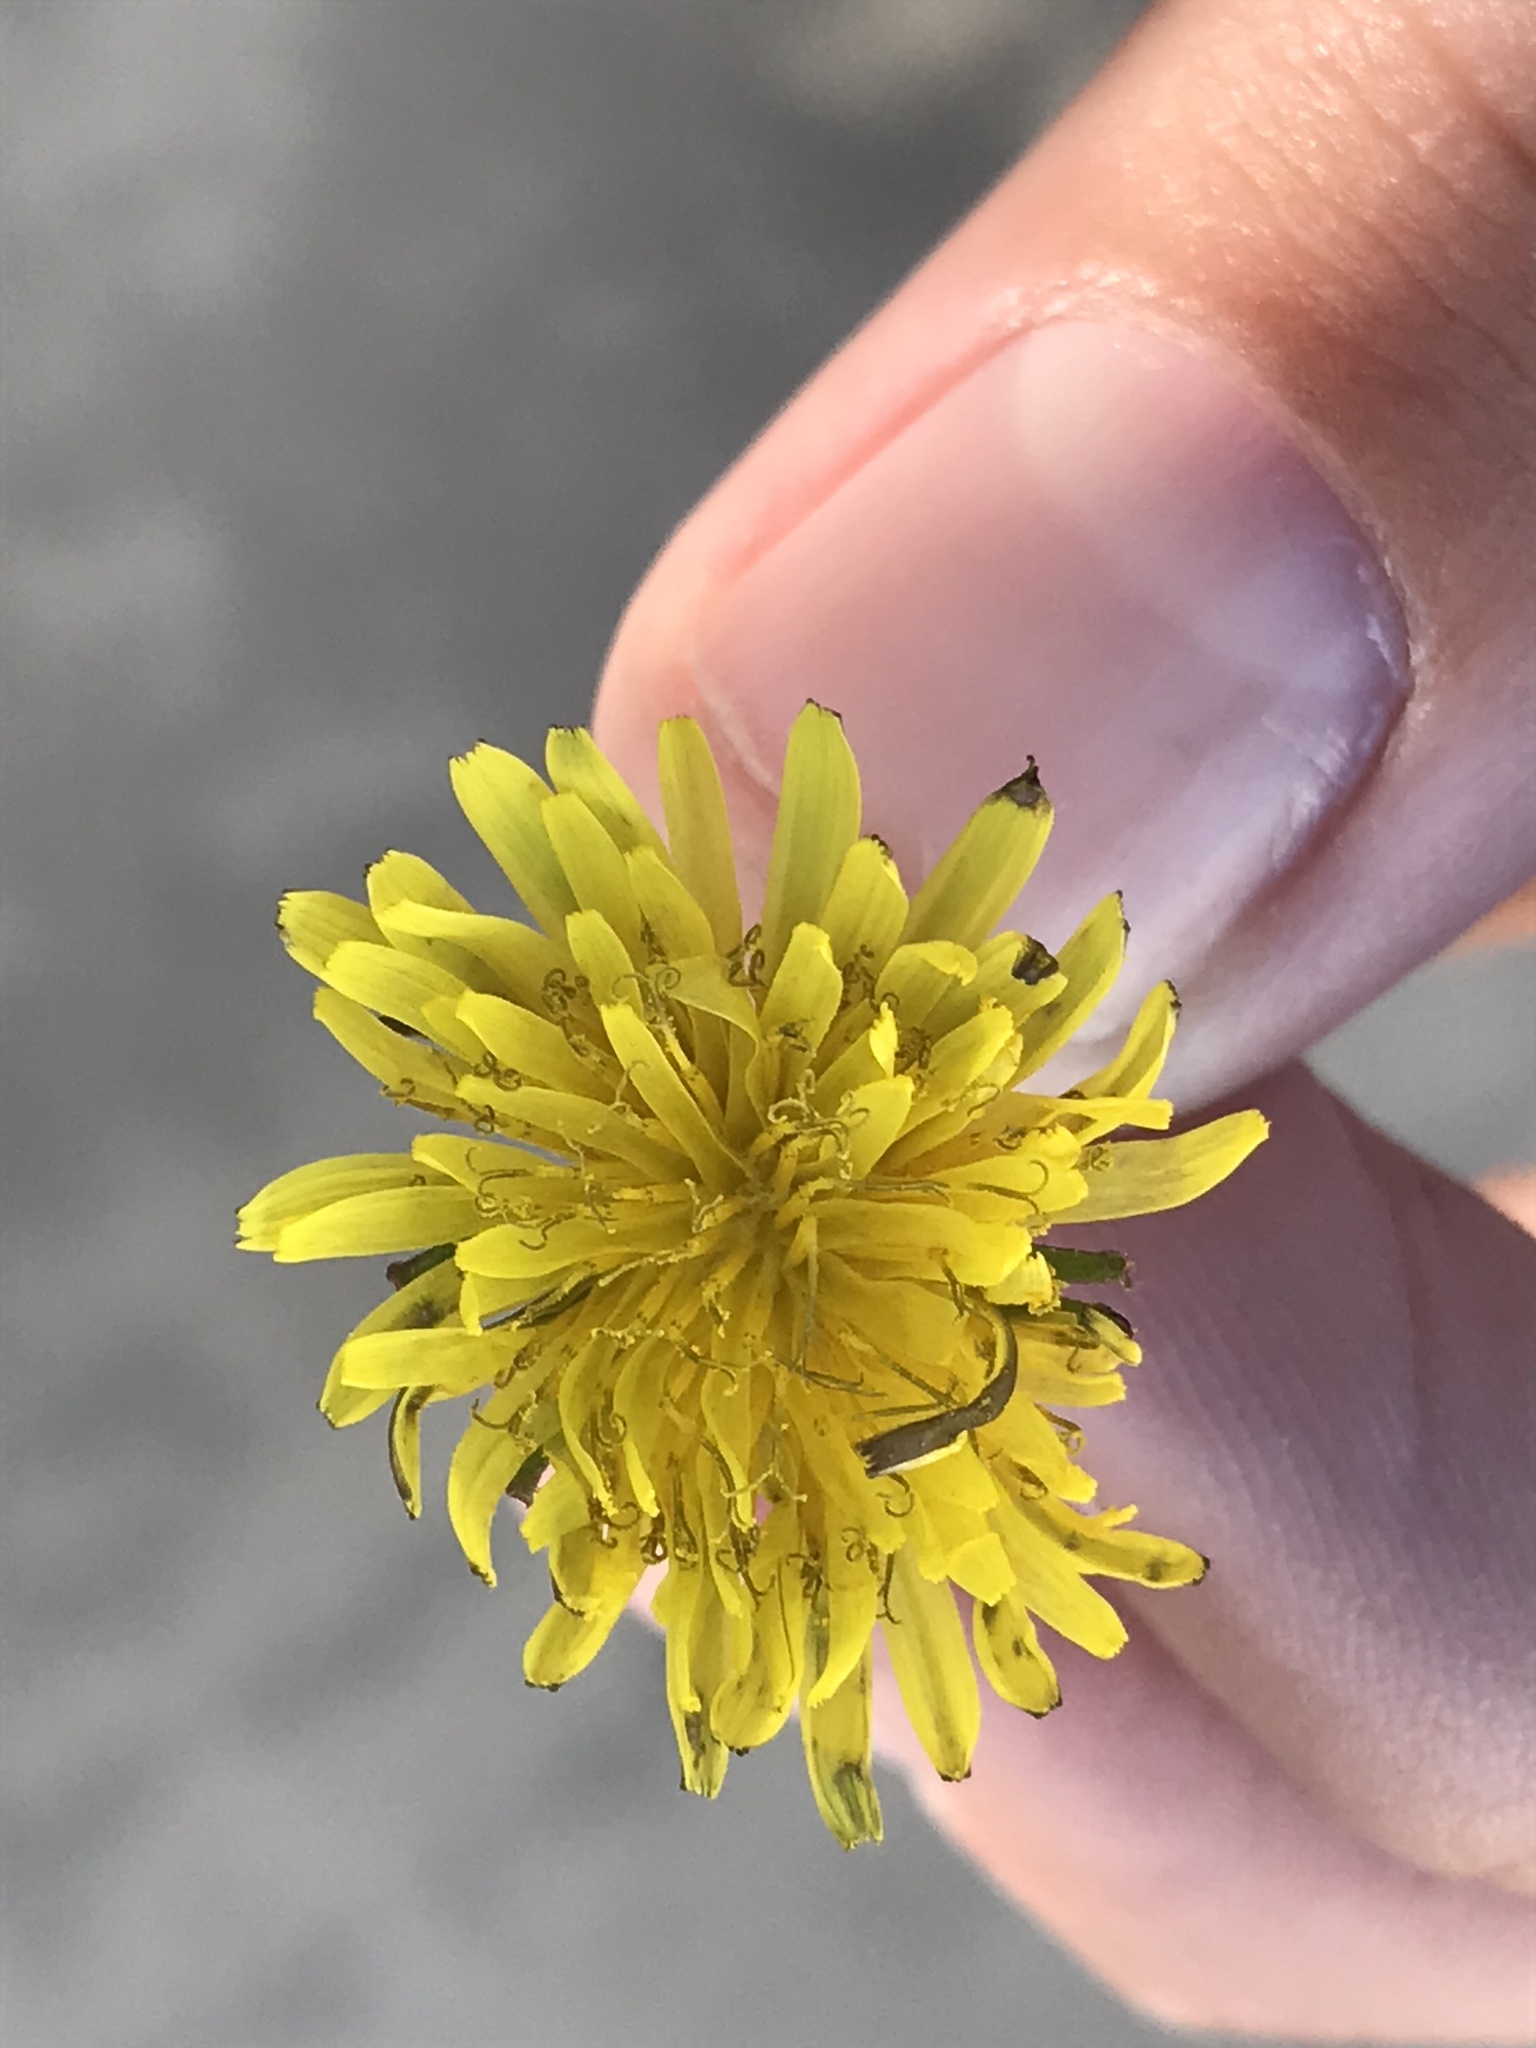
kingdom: Plantae
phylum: Tracheophyta
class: Magnoliopsida
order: Asterales
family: Asteraceae
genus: Taraxacum
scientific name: Taraxacum officinale
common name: Common dandelion
